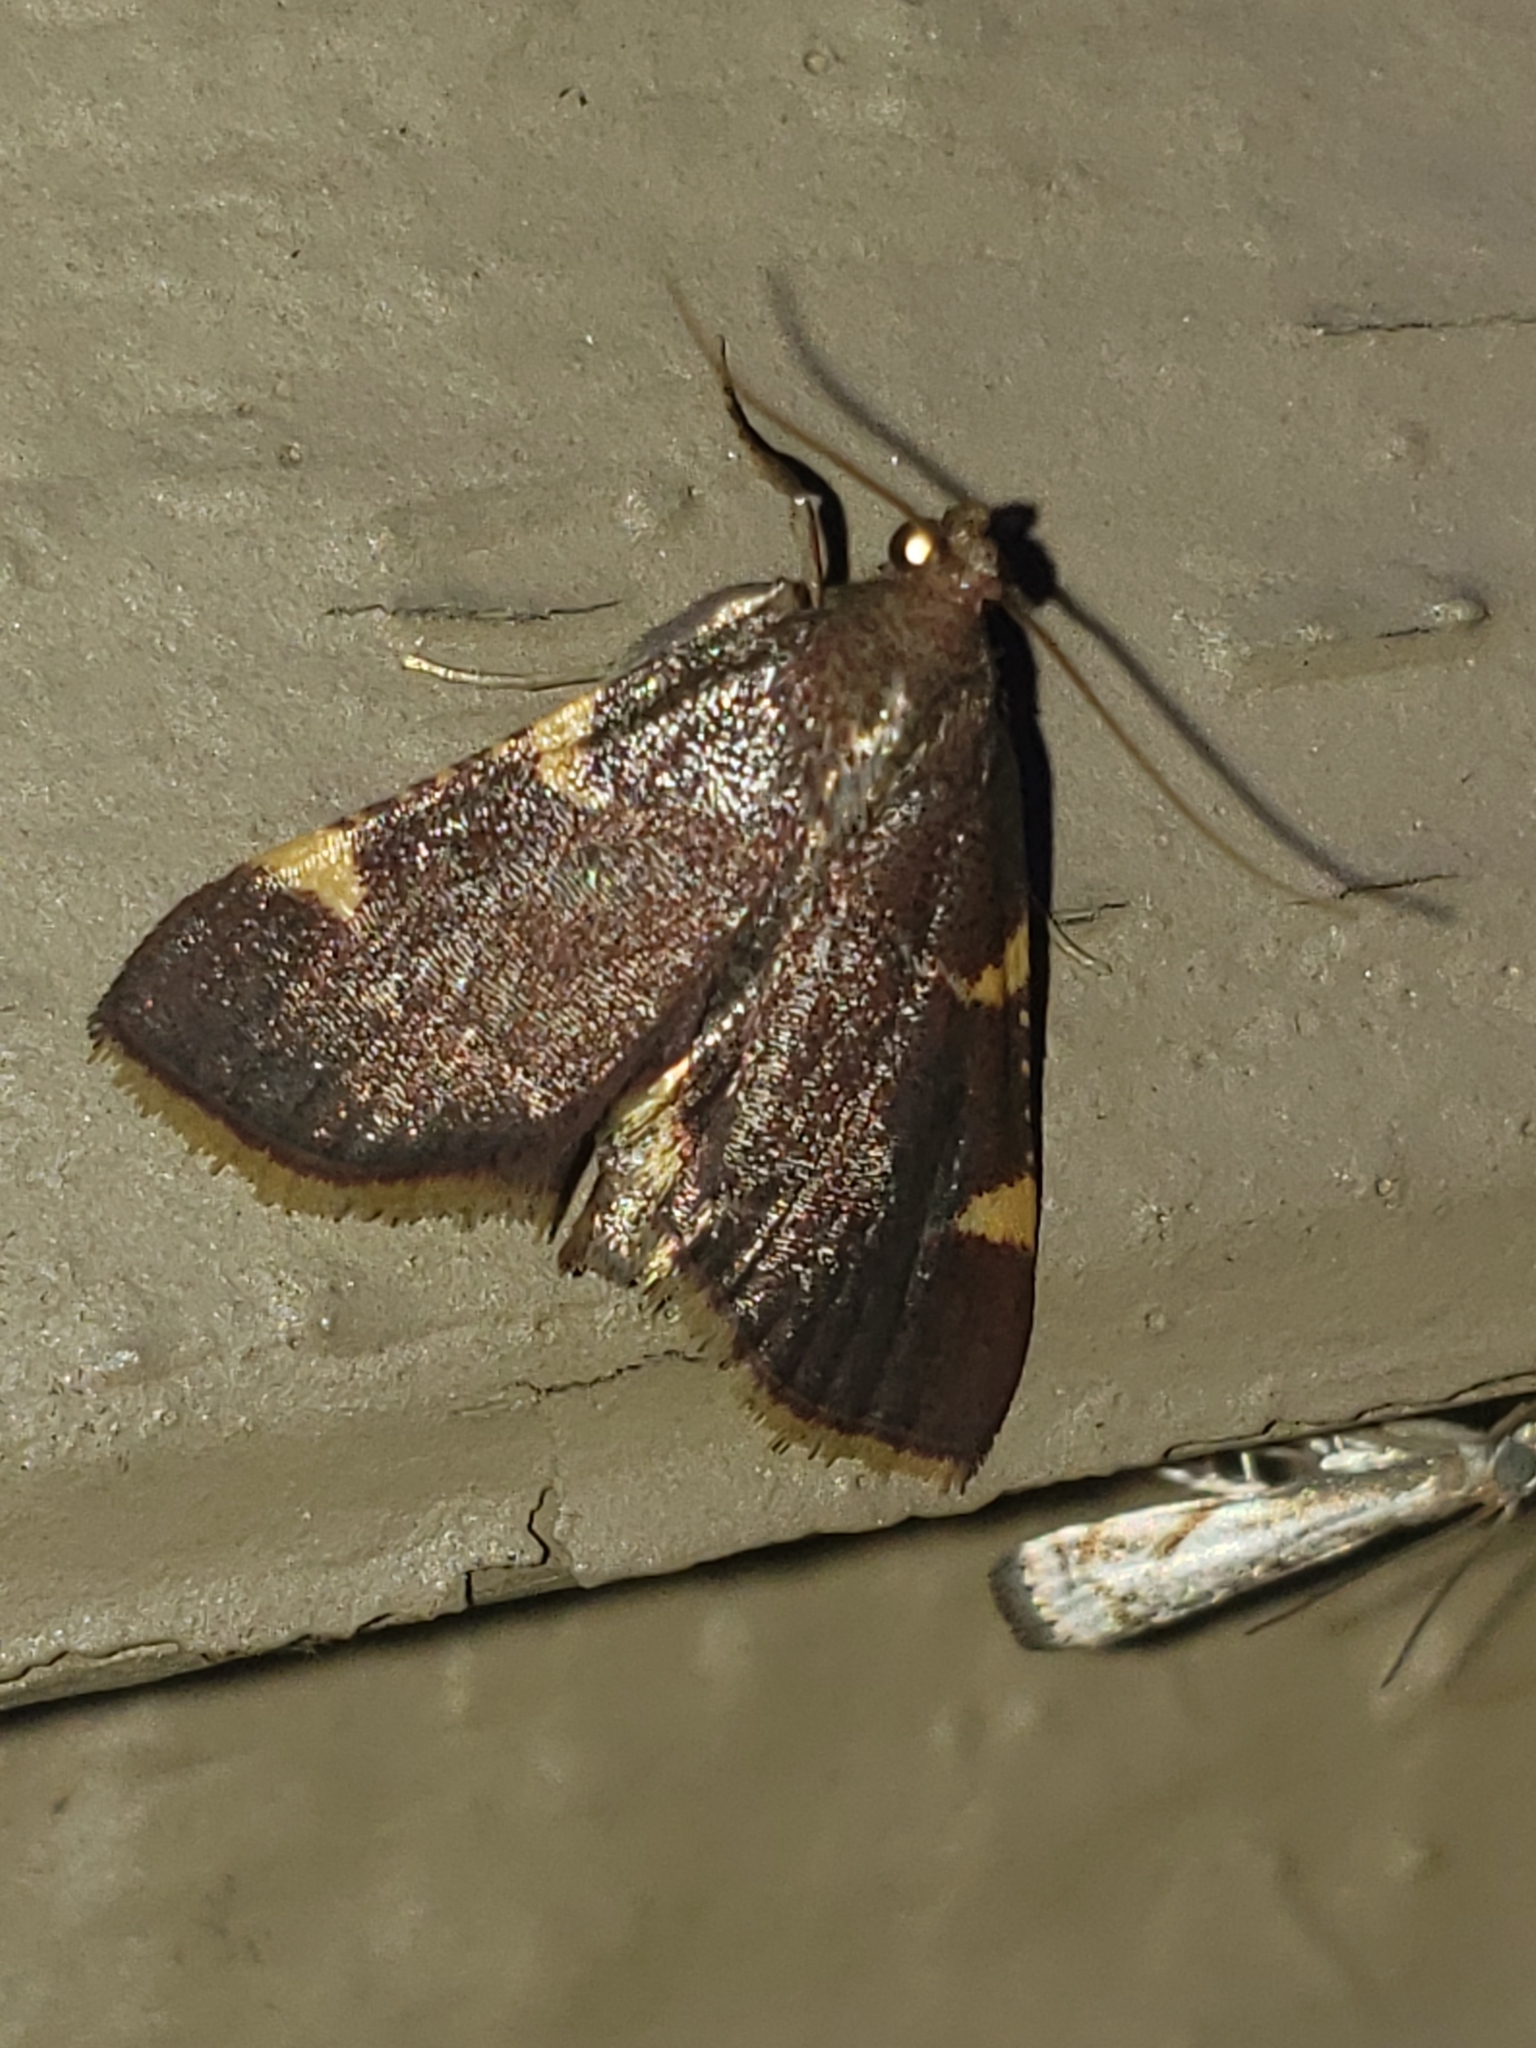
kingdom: Animalia
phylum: Arthropoda
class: Insecta
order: Lepidoptera
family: Pyralidae
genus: Hypsopygia
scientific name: Hypsopygia olinalis
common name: Yellow-fringed dolichomia moth
